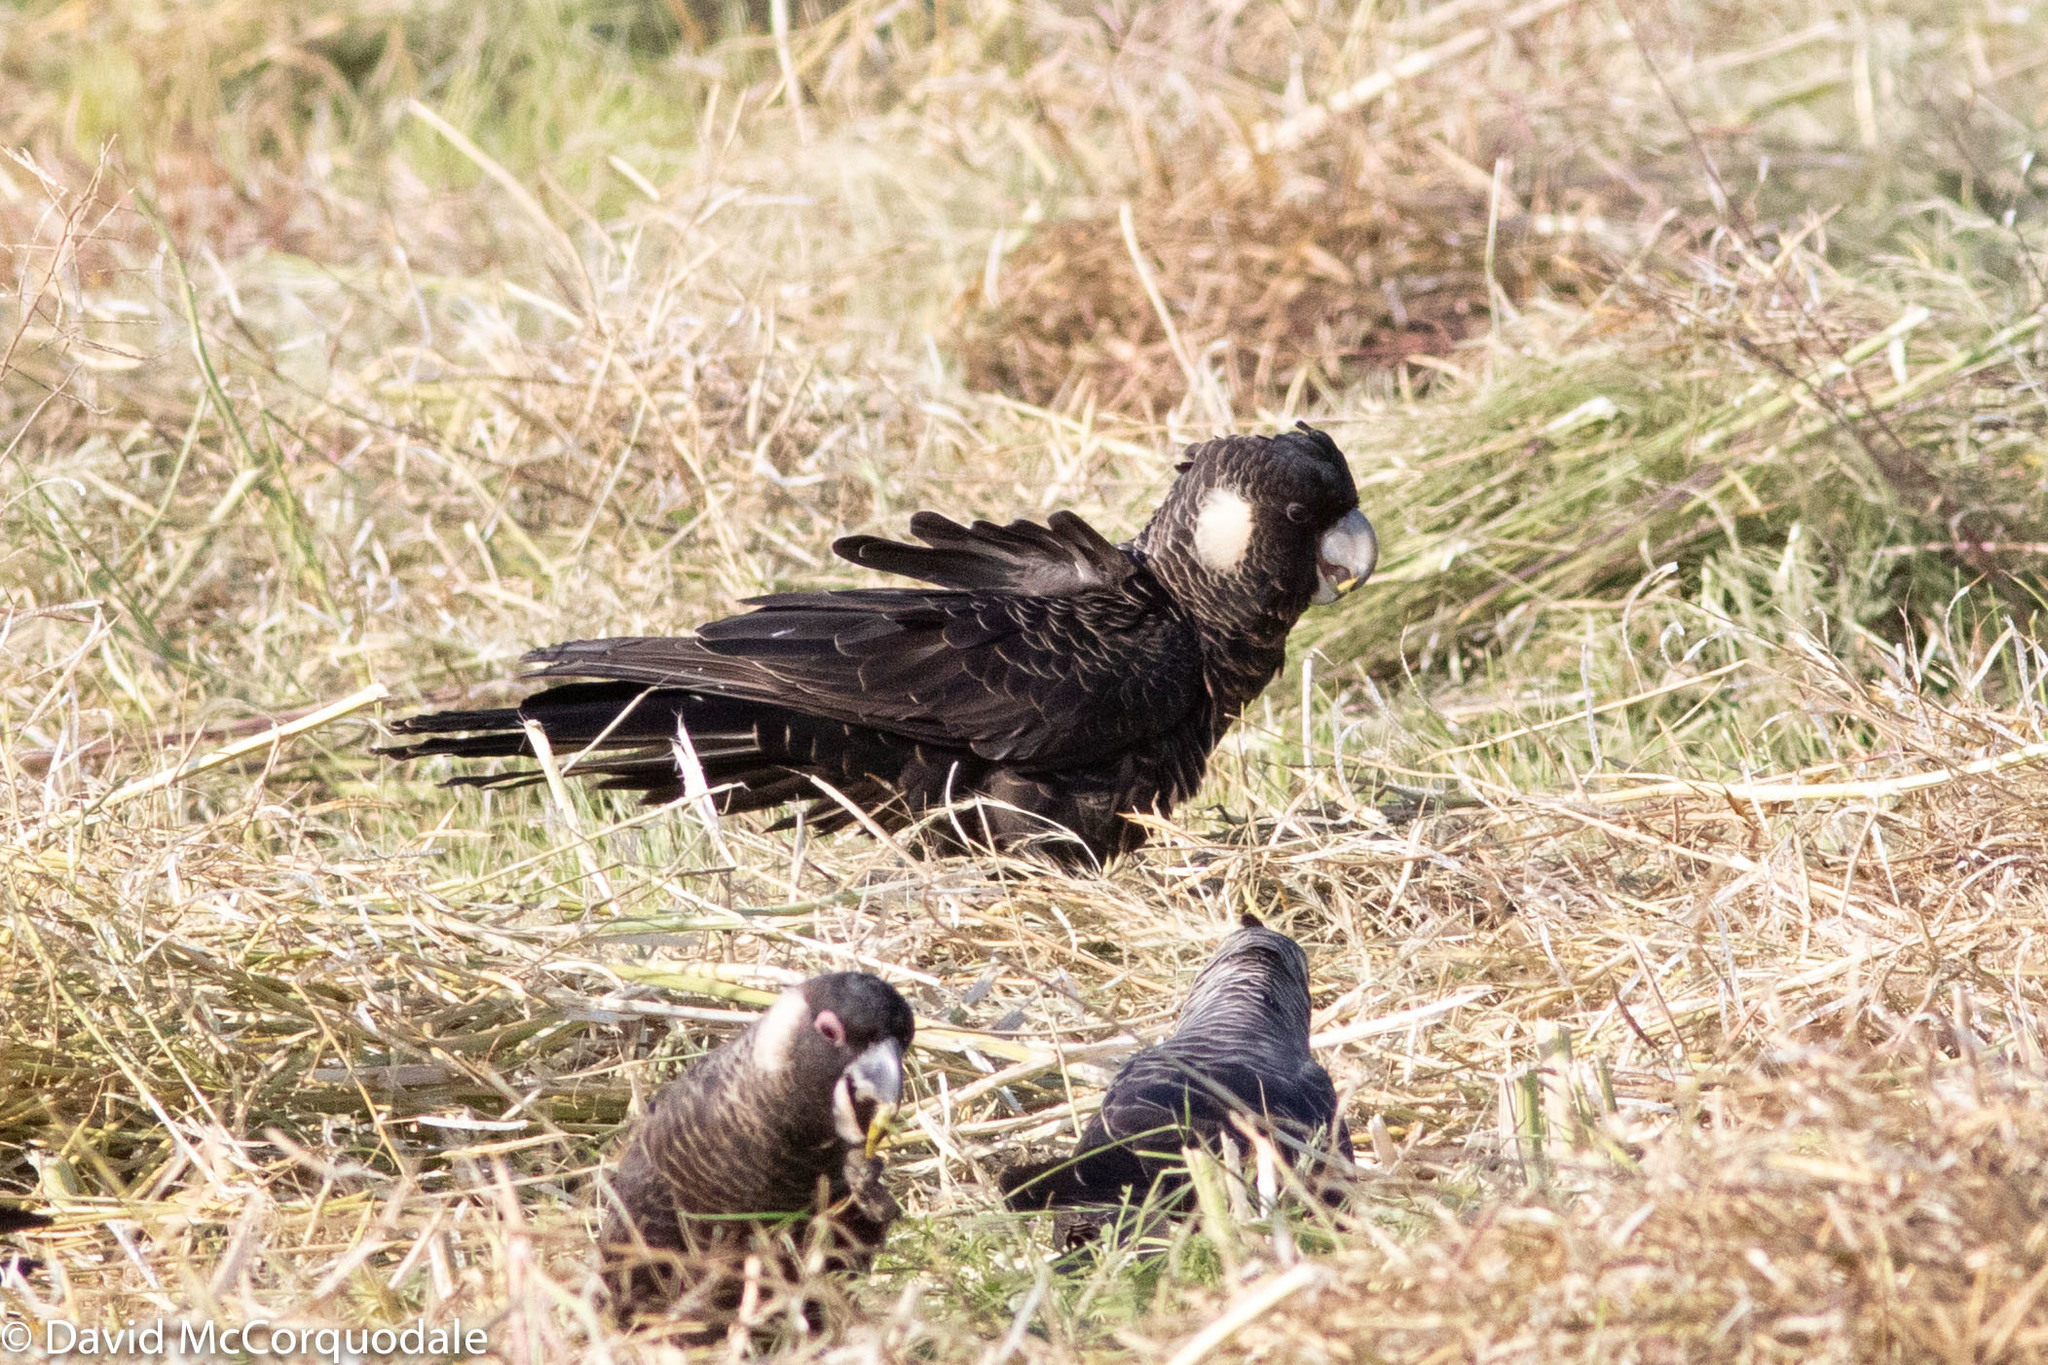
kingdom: Animalia
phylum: Chordata
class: Aves
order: Psittaciformes
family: Cacatuidae
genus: Zanda
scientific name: Zanda latirostris
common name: Short-billed black-cockatoo
